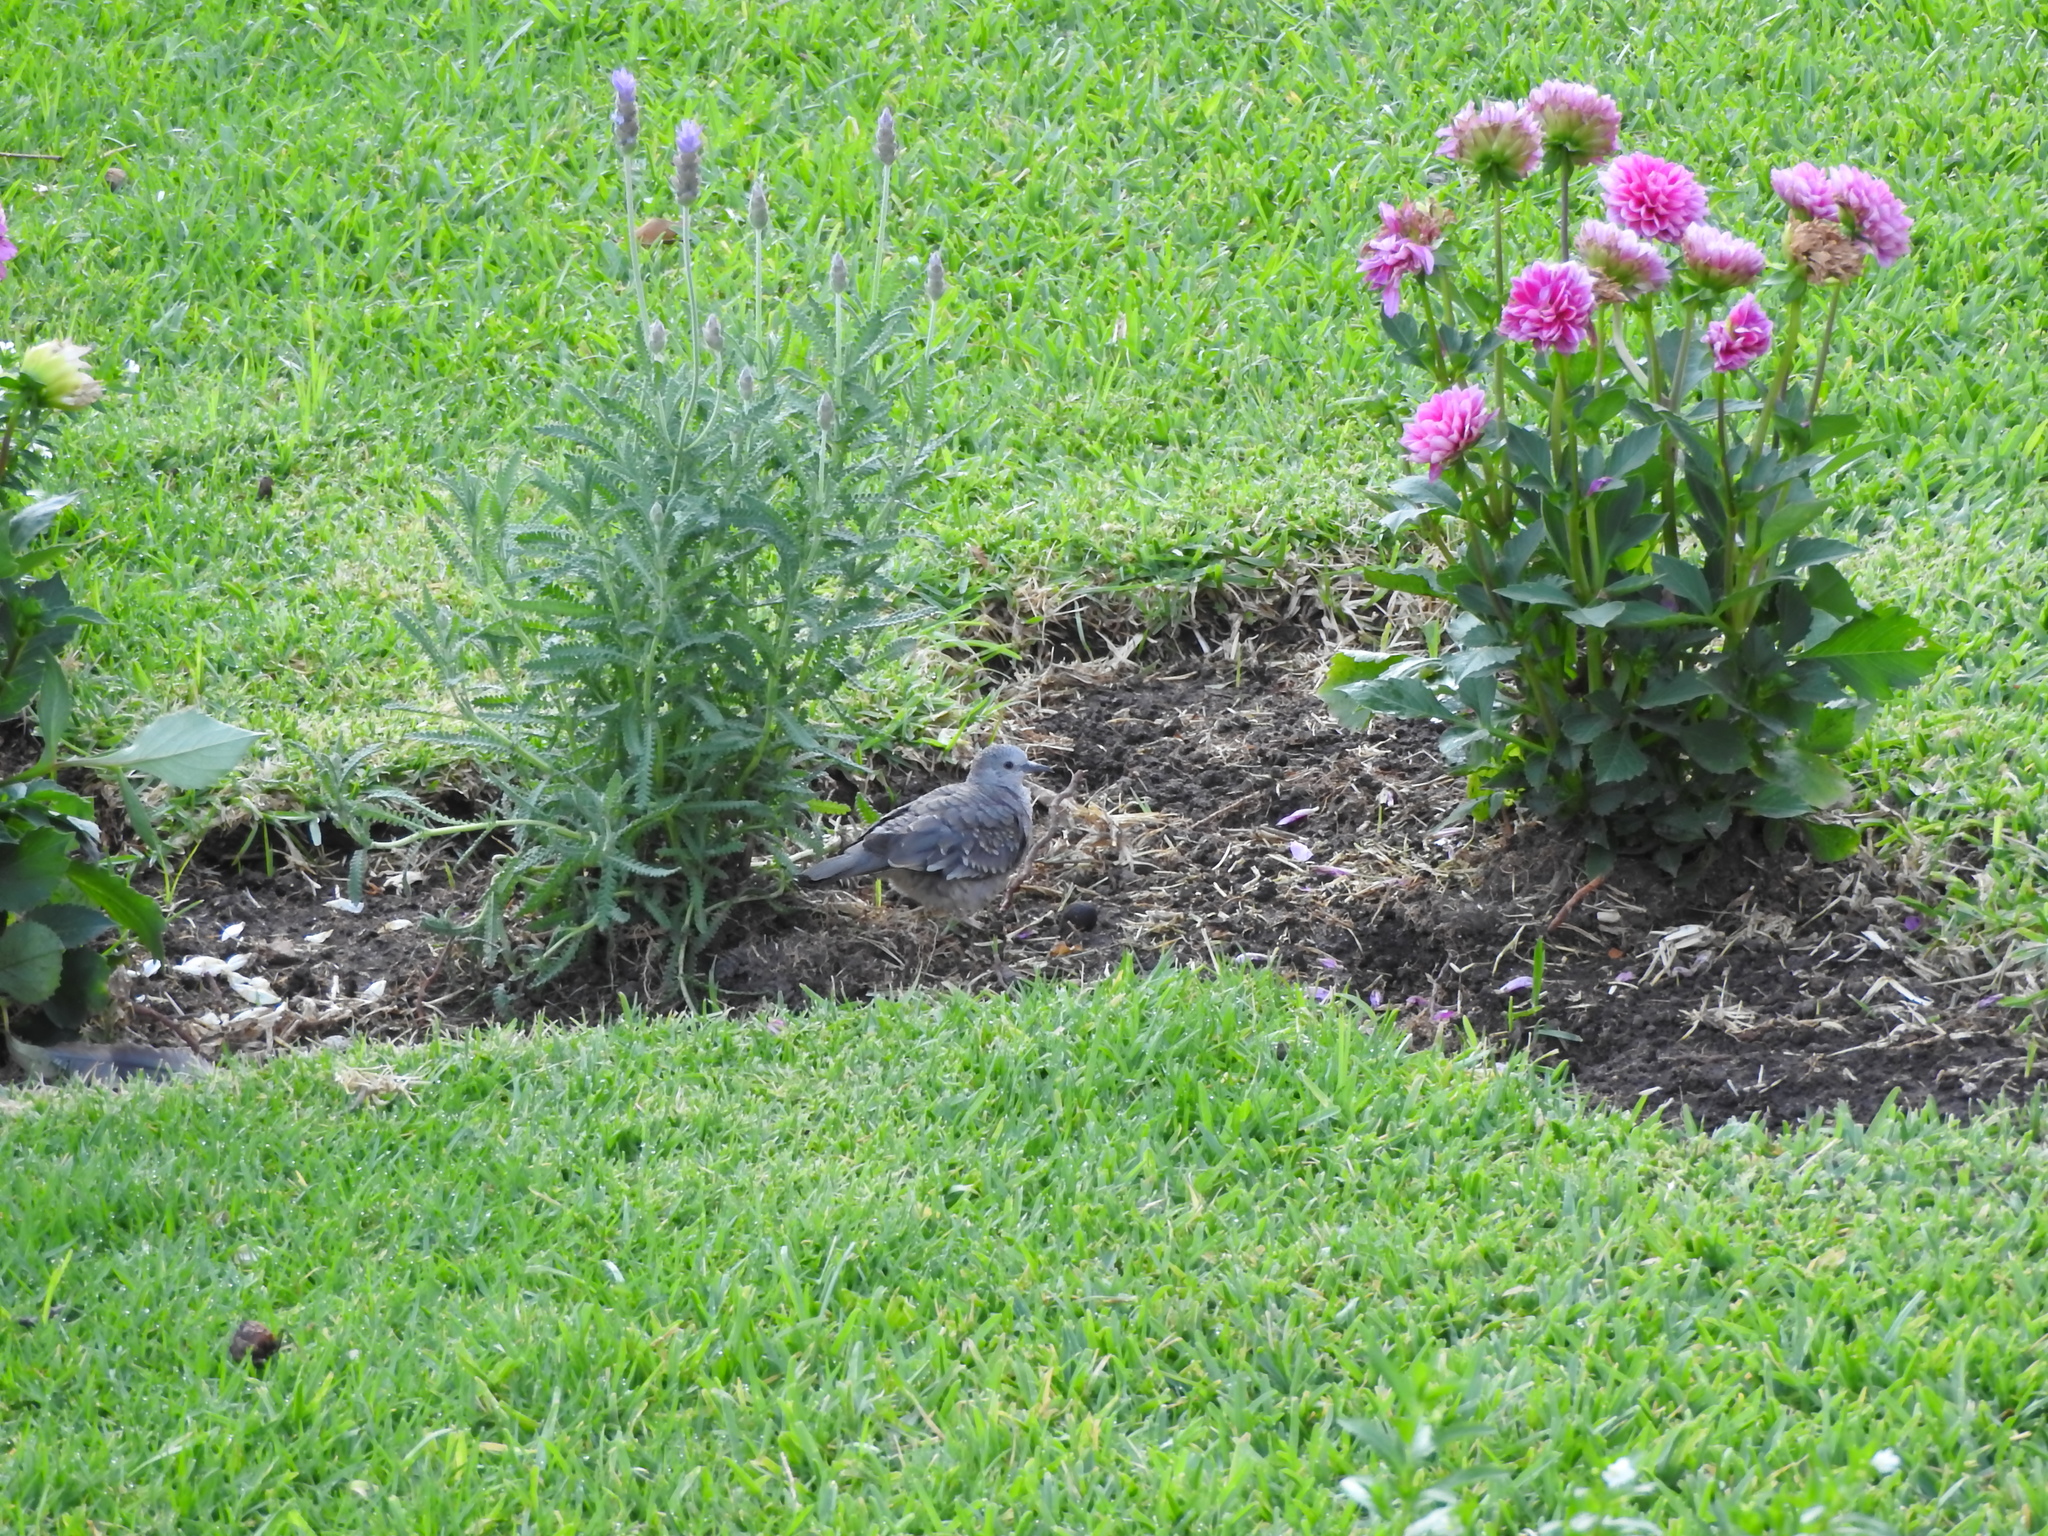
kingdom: Animalia
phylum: Chordata
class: Aves
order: Columbiformes
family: Columbidae
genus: Columbina
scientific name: Columbina inca
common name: Inca dove
